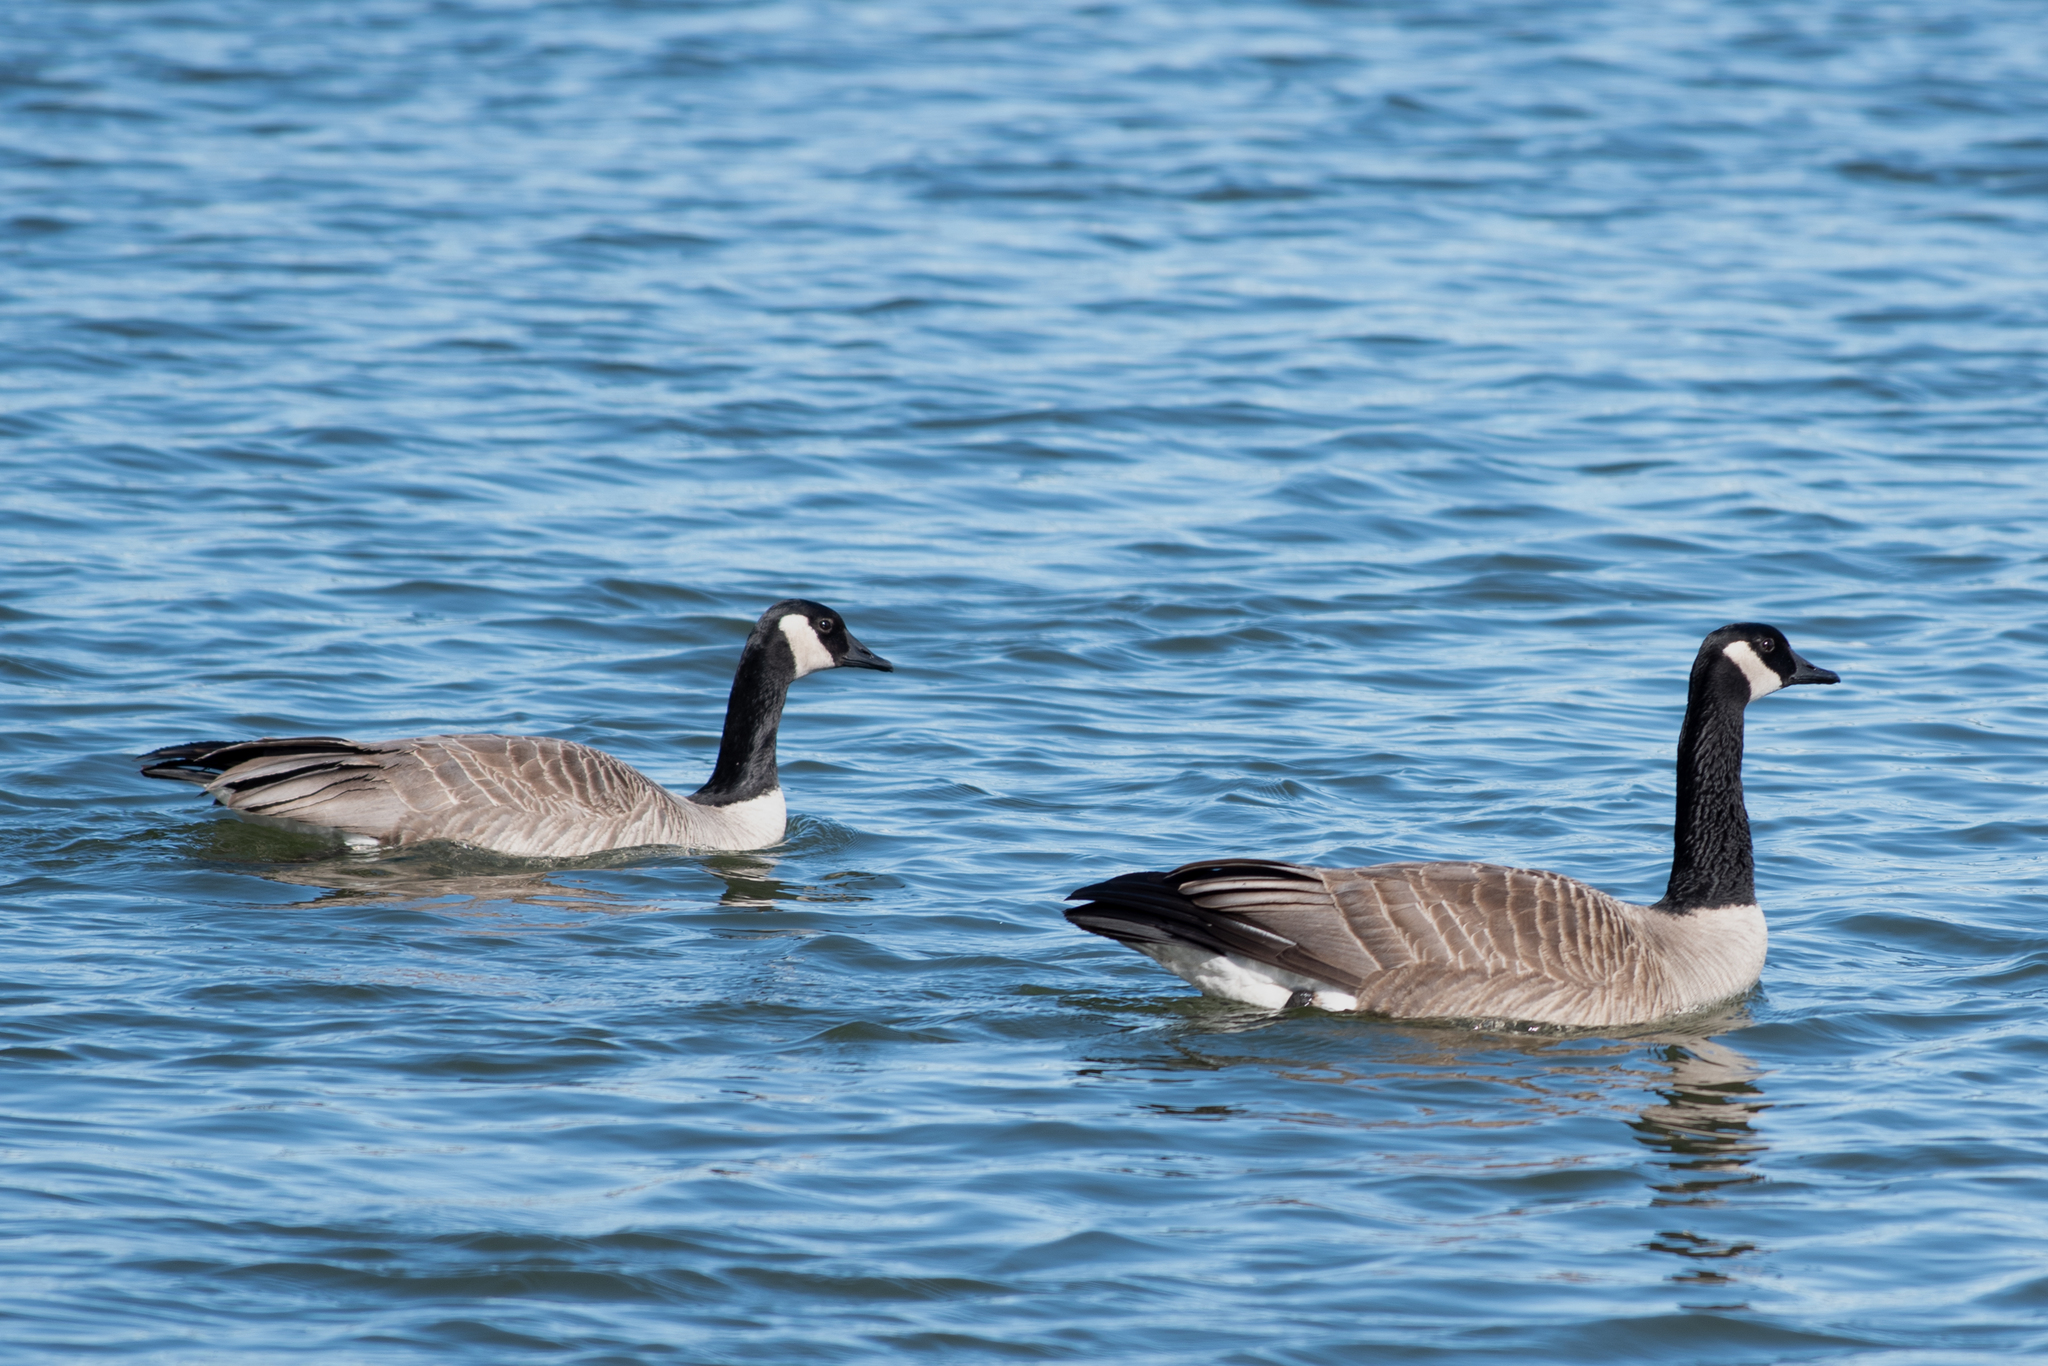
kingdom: Animalia
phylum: Chordata
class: Aves
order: Anseriformes
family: Anatidae
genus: Branta
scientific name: Branta canadensis
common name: Canada goose
